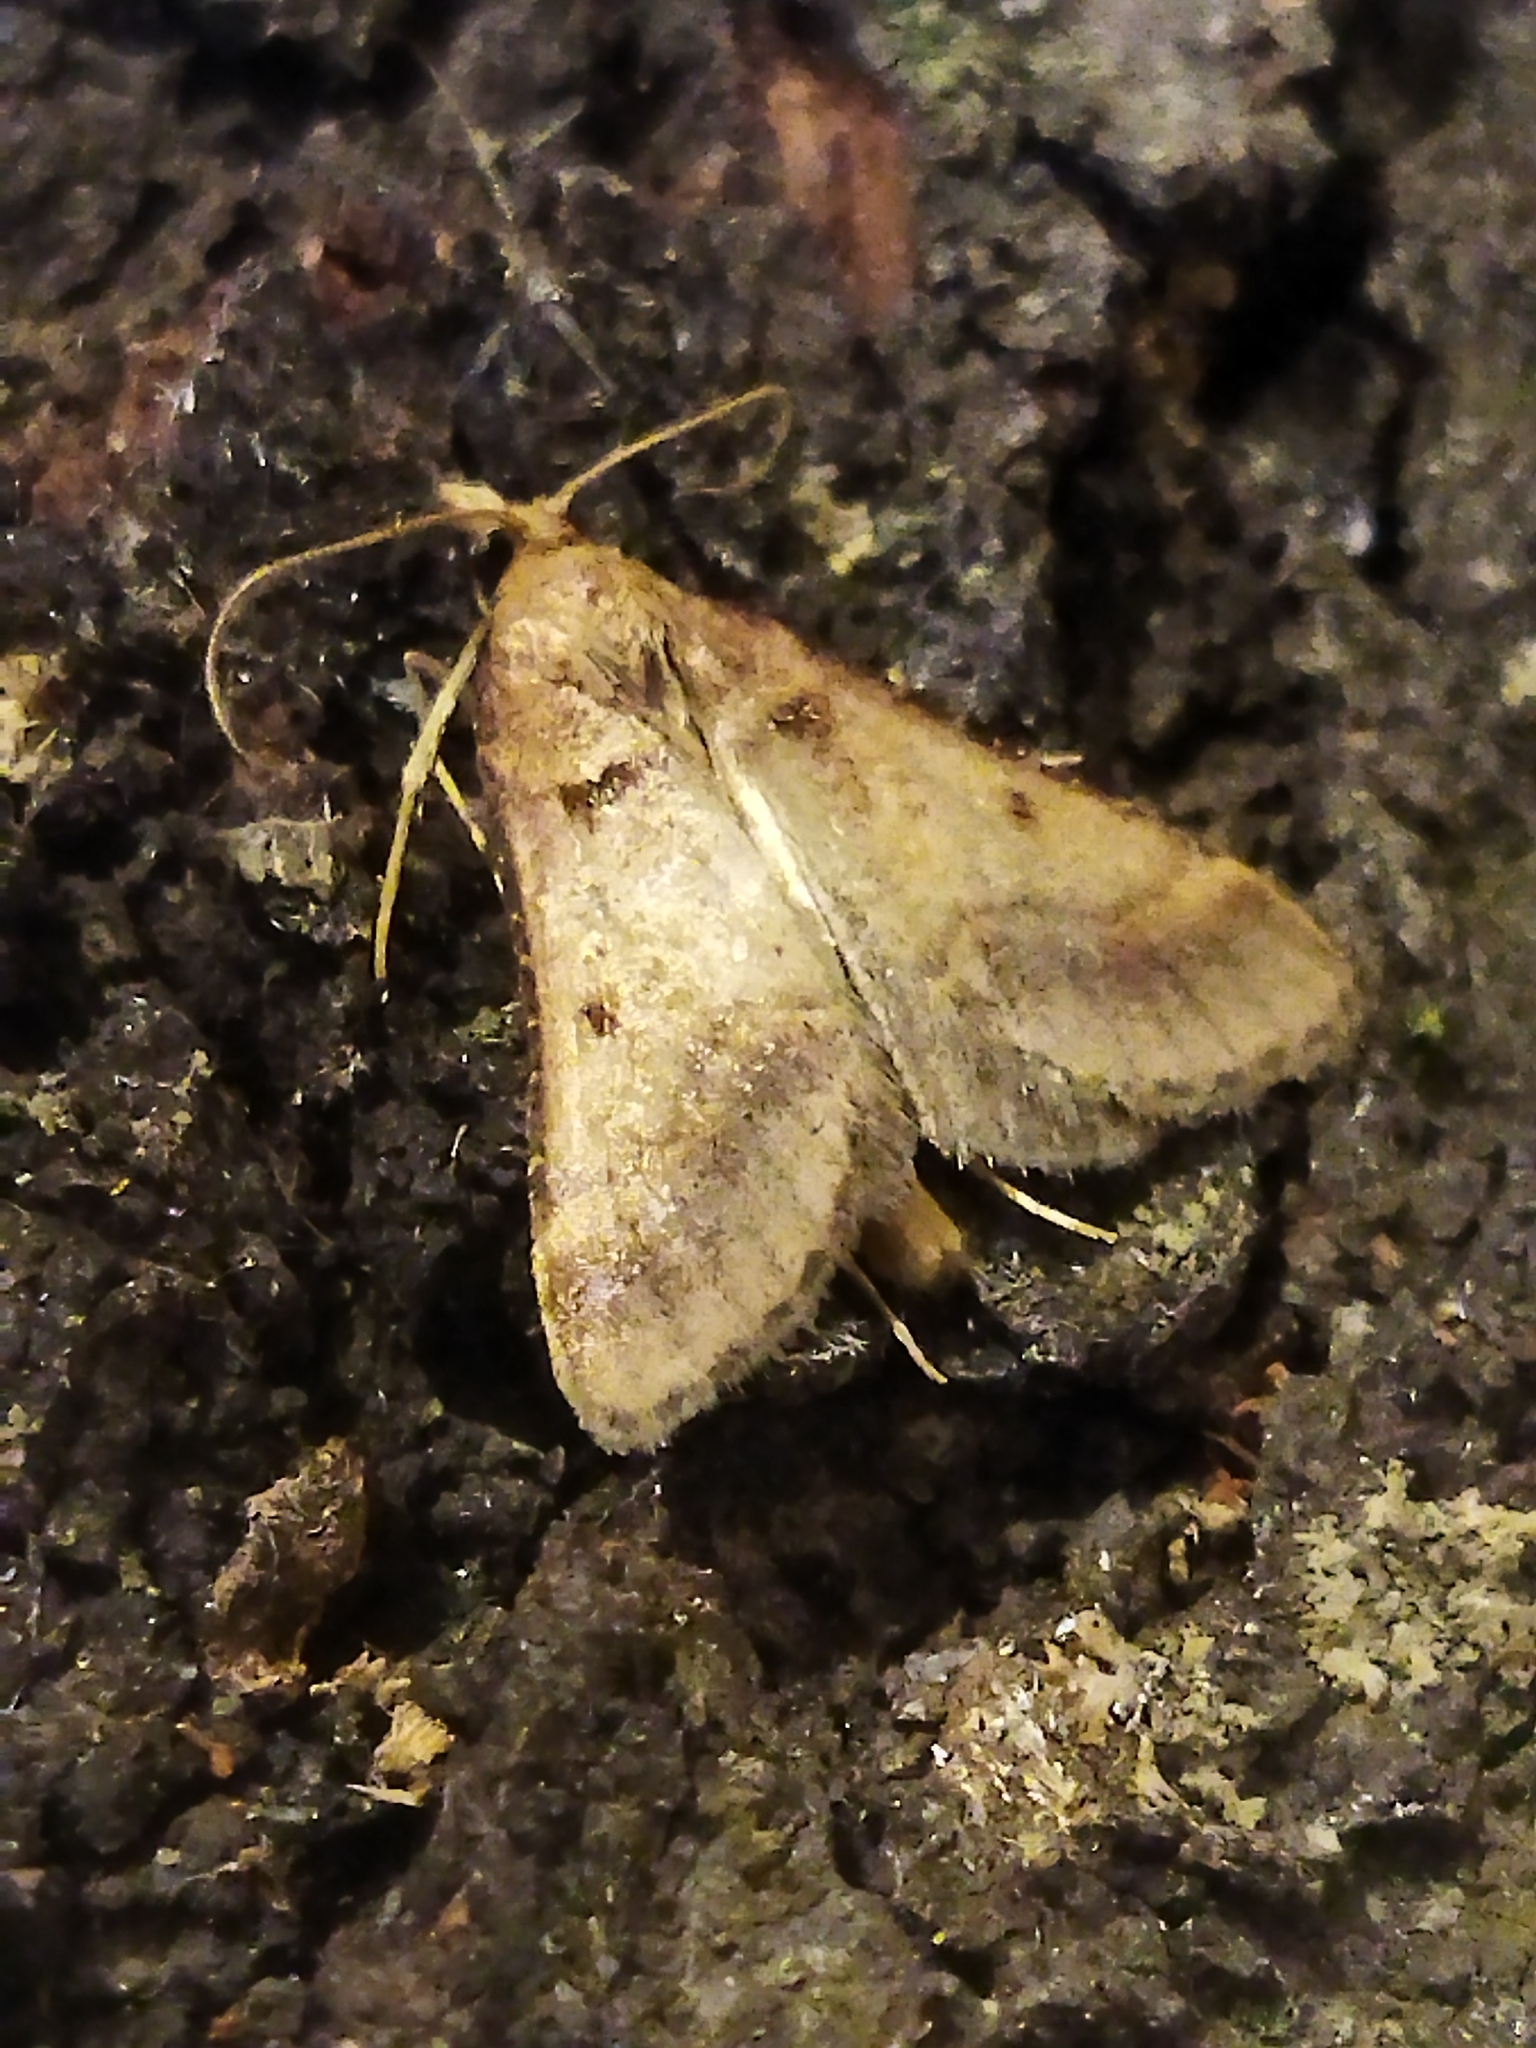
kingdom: Animalia
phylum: Arthropoda
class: Insecta
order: Lepidoptera
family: Pyralidae
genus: Stemmatophora
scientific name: Stemmatophora brunnealis
